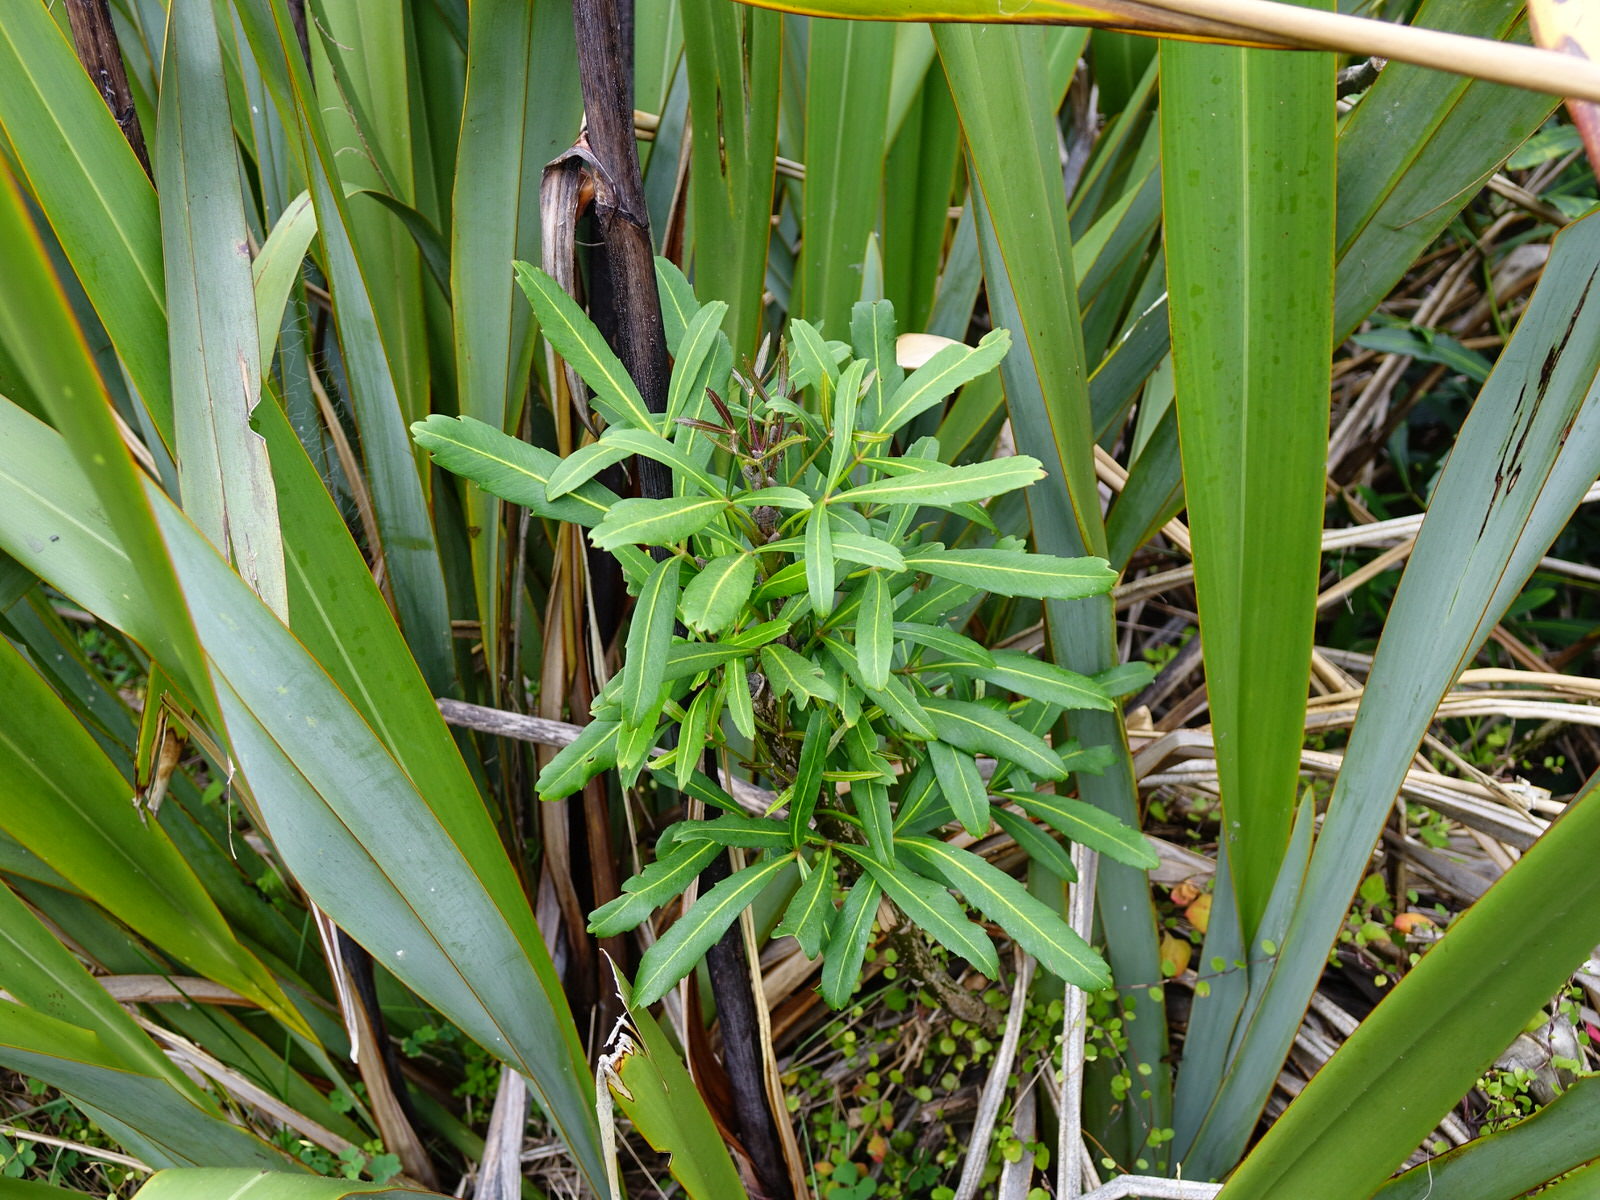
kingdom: Plantae
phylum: Tracheophyta
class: Magnoliopsida
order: Apiales
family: Araliaceae
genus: Pseudopanax
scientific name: Pseudopanax
